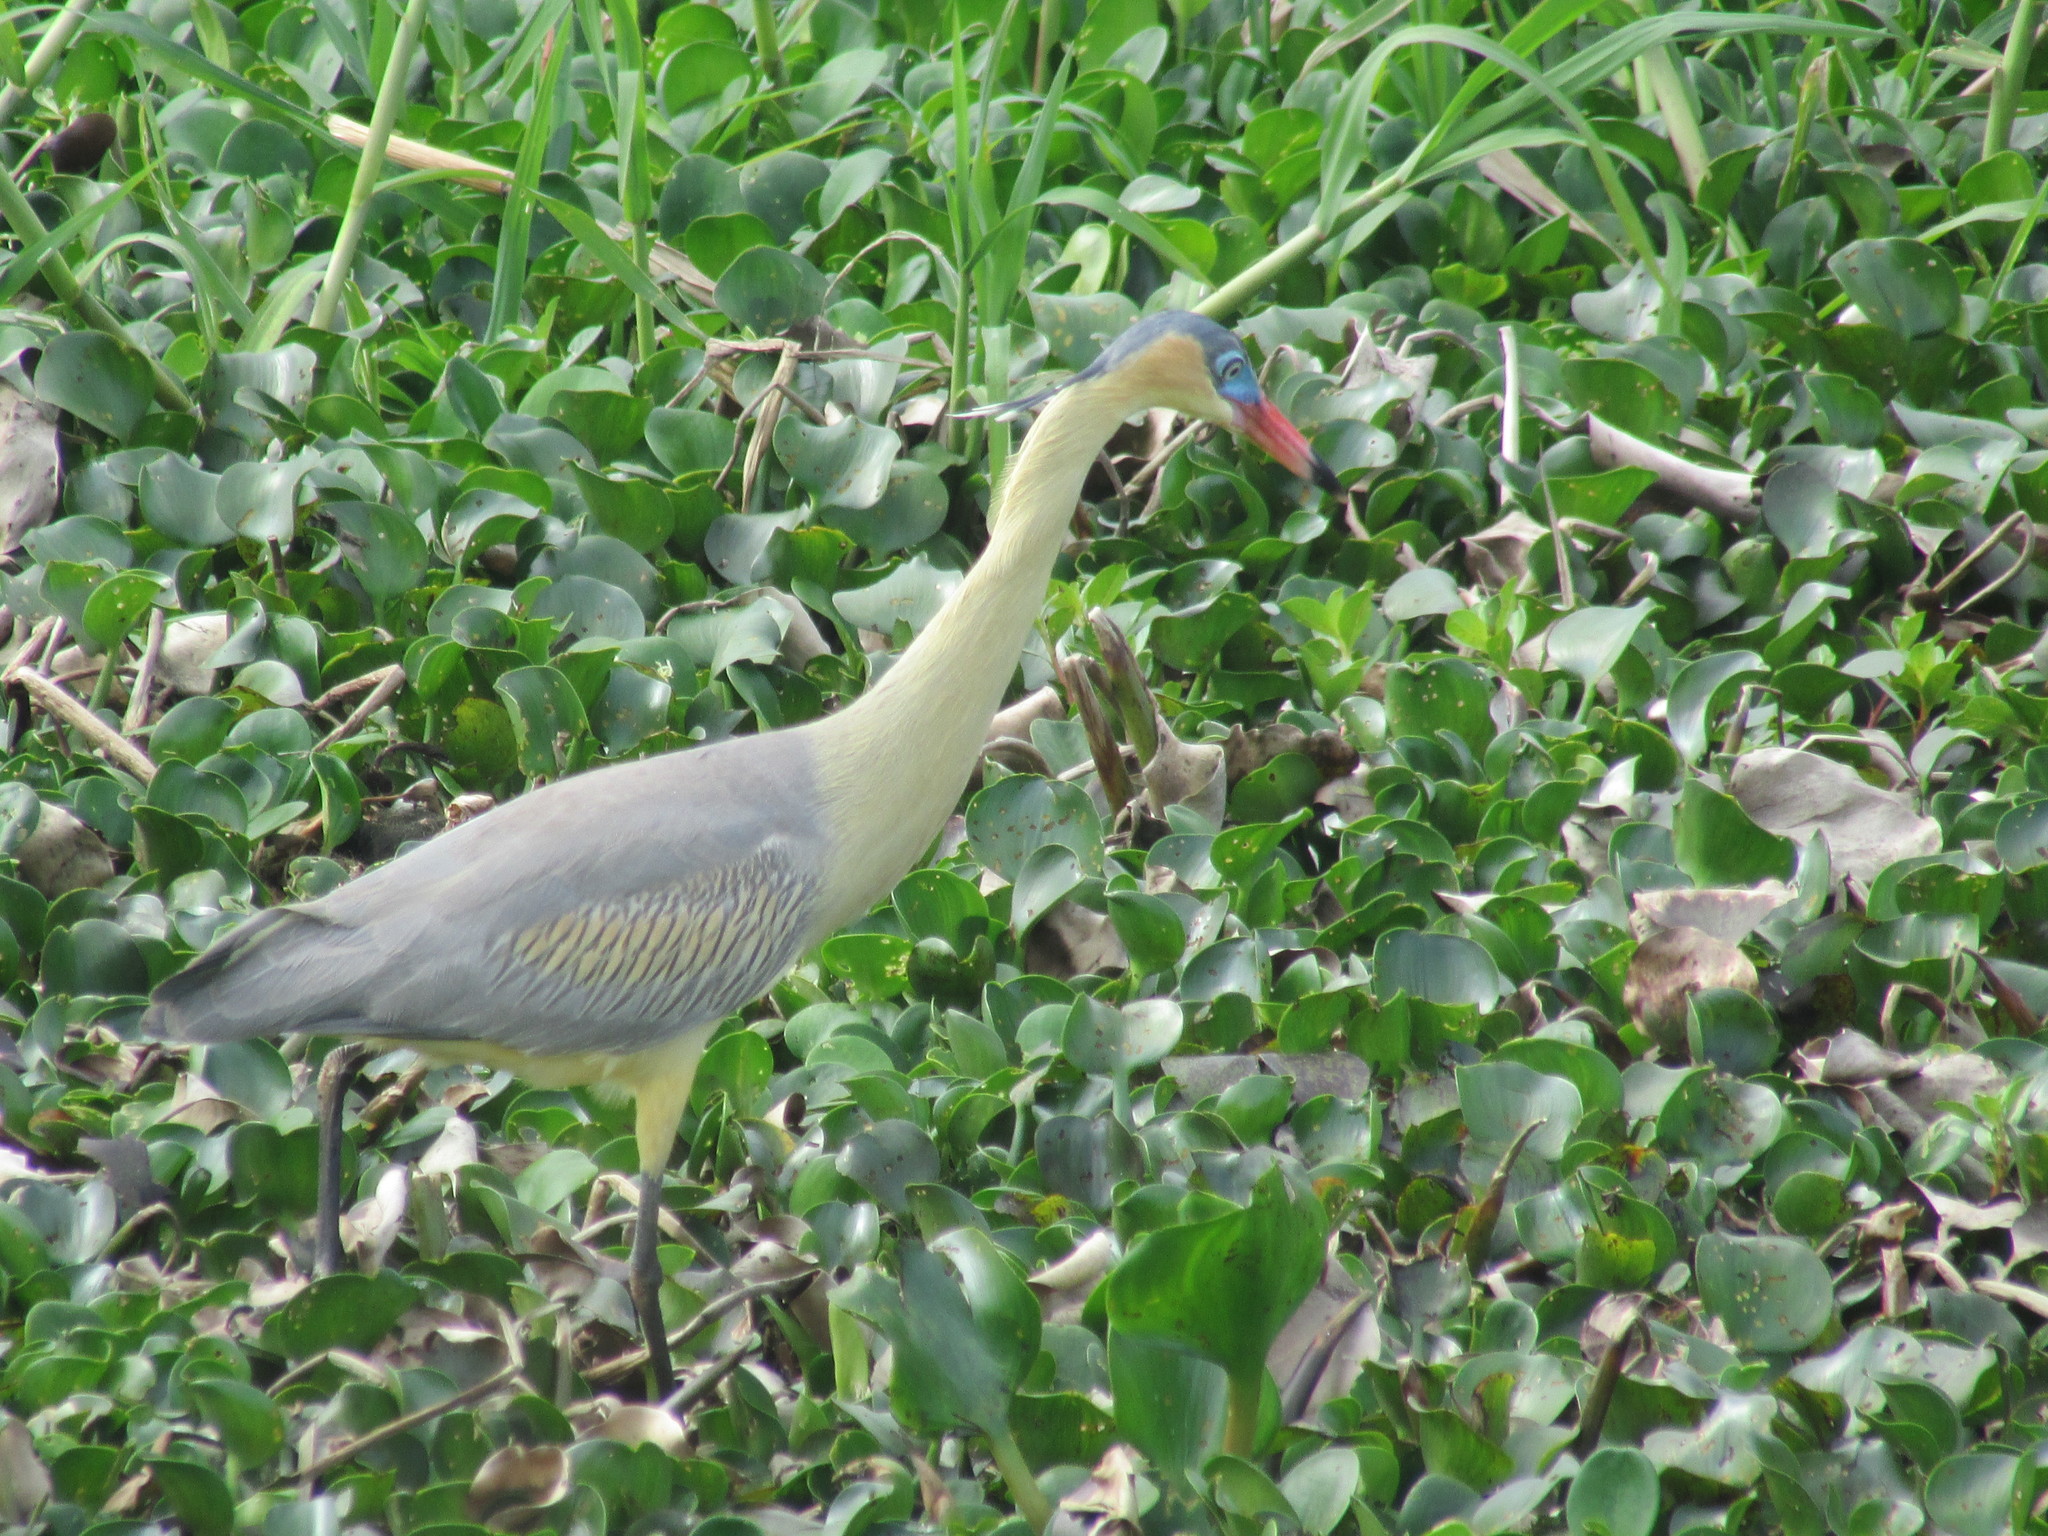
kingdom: Animalia
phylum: Chordata
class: Aves
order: Pelecaniformes
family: Ardeidae
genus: Syrigma
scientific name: Syrigma sibilatrix
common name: Whistling heron
